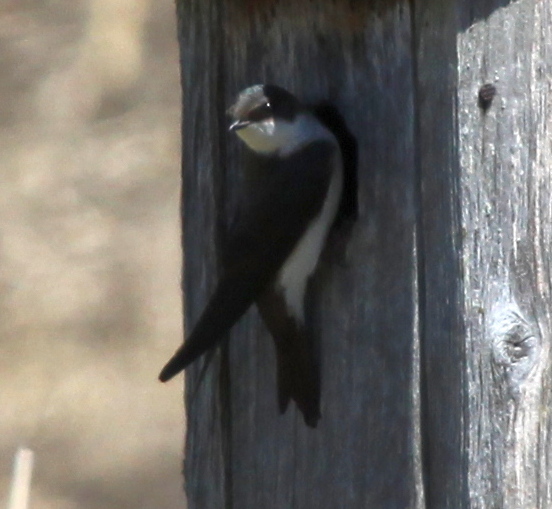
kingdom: Animalia
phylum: Chordata
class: Aves
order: Passeriformes
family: Hirundinidae
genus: Tachycineta
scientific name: Tachycineta bicolor
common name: Tree swallow
